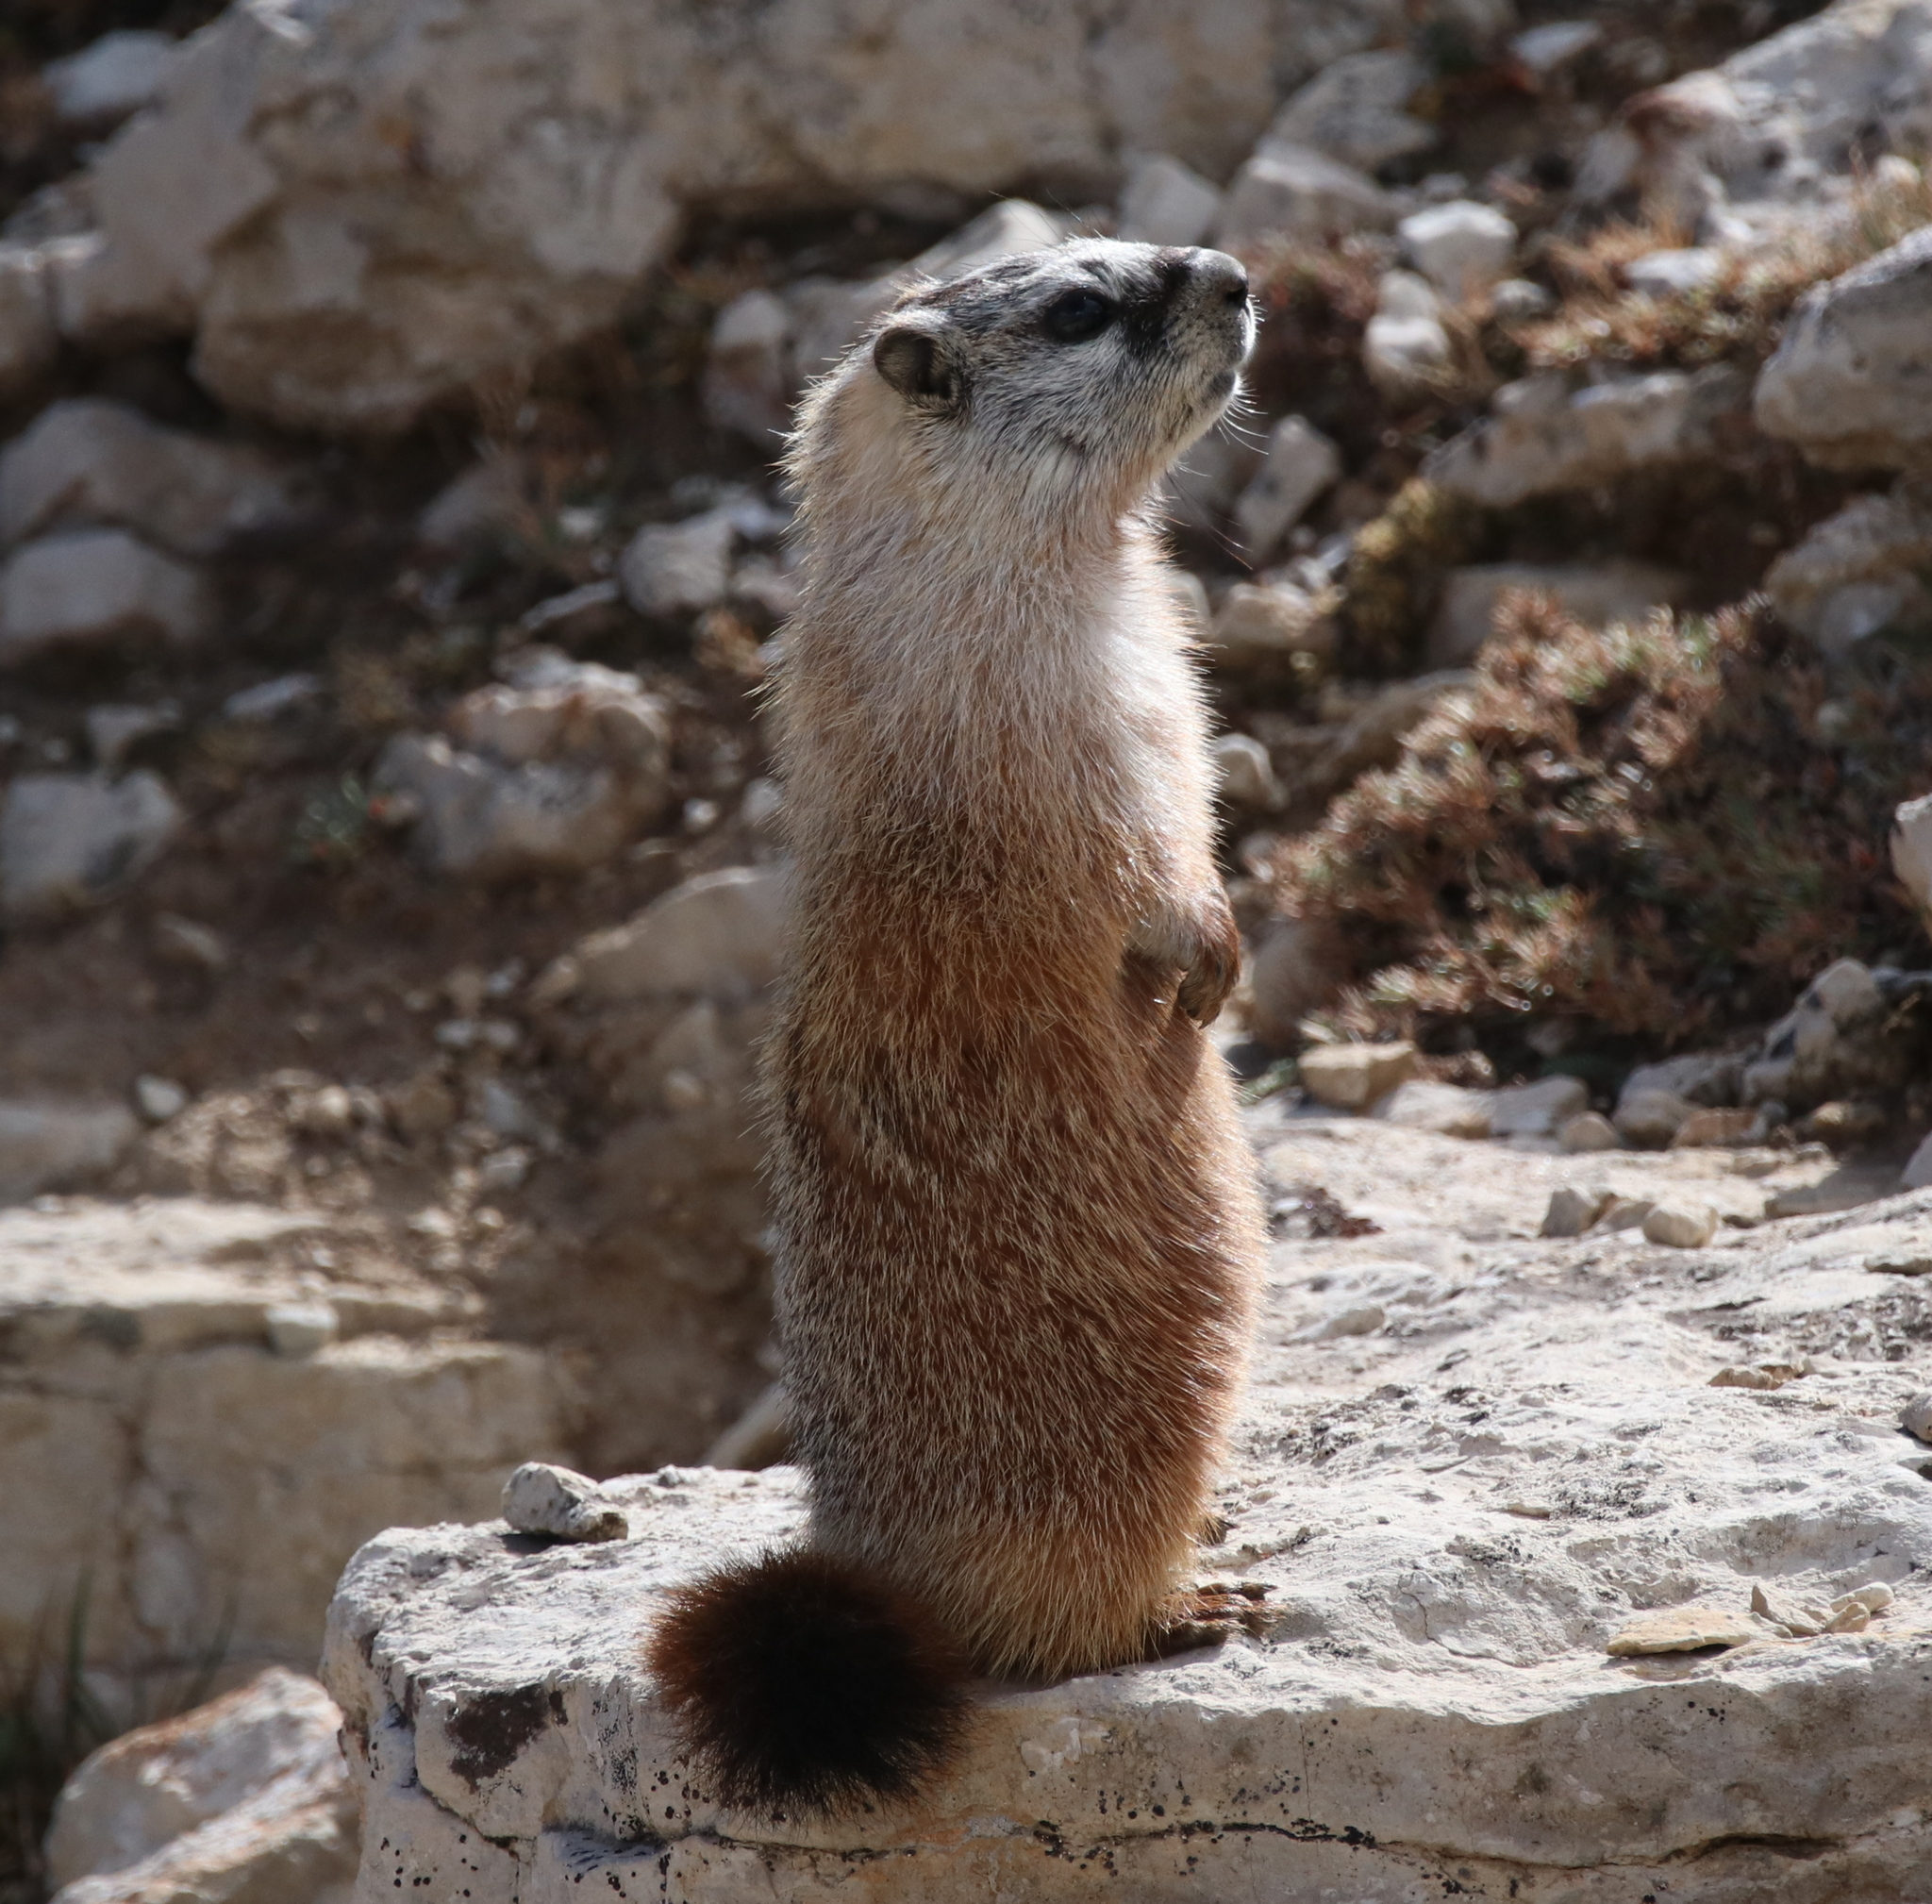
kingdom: Animalia
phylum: Chordata
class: Mammalia
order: Rodentia
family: Sciuridae
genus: Marmota
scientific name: Marmota flaviventris
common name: Yellow-bellied marmot
